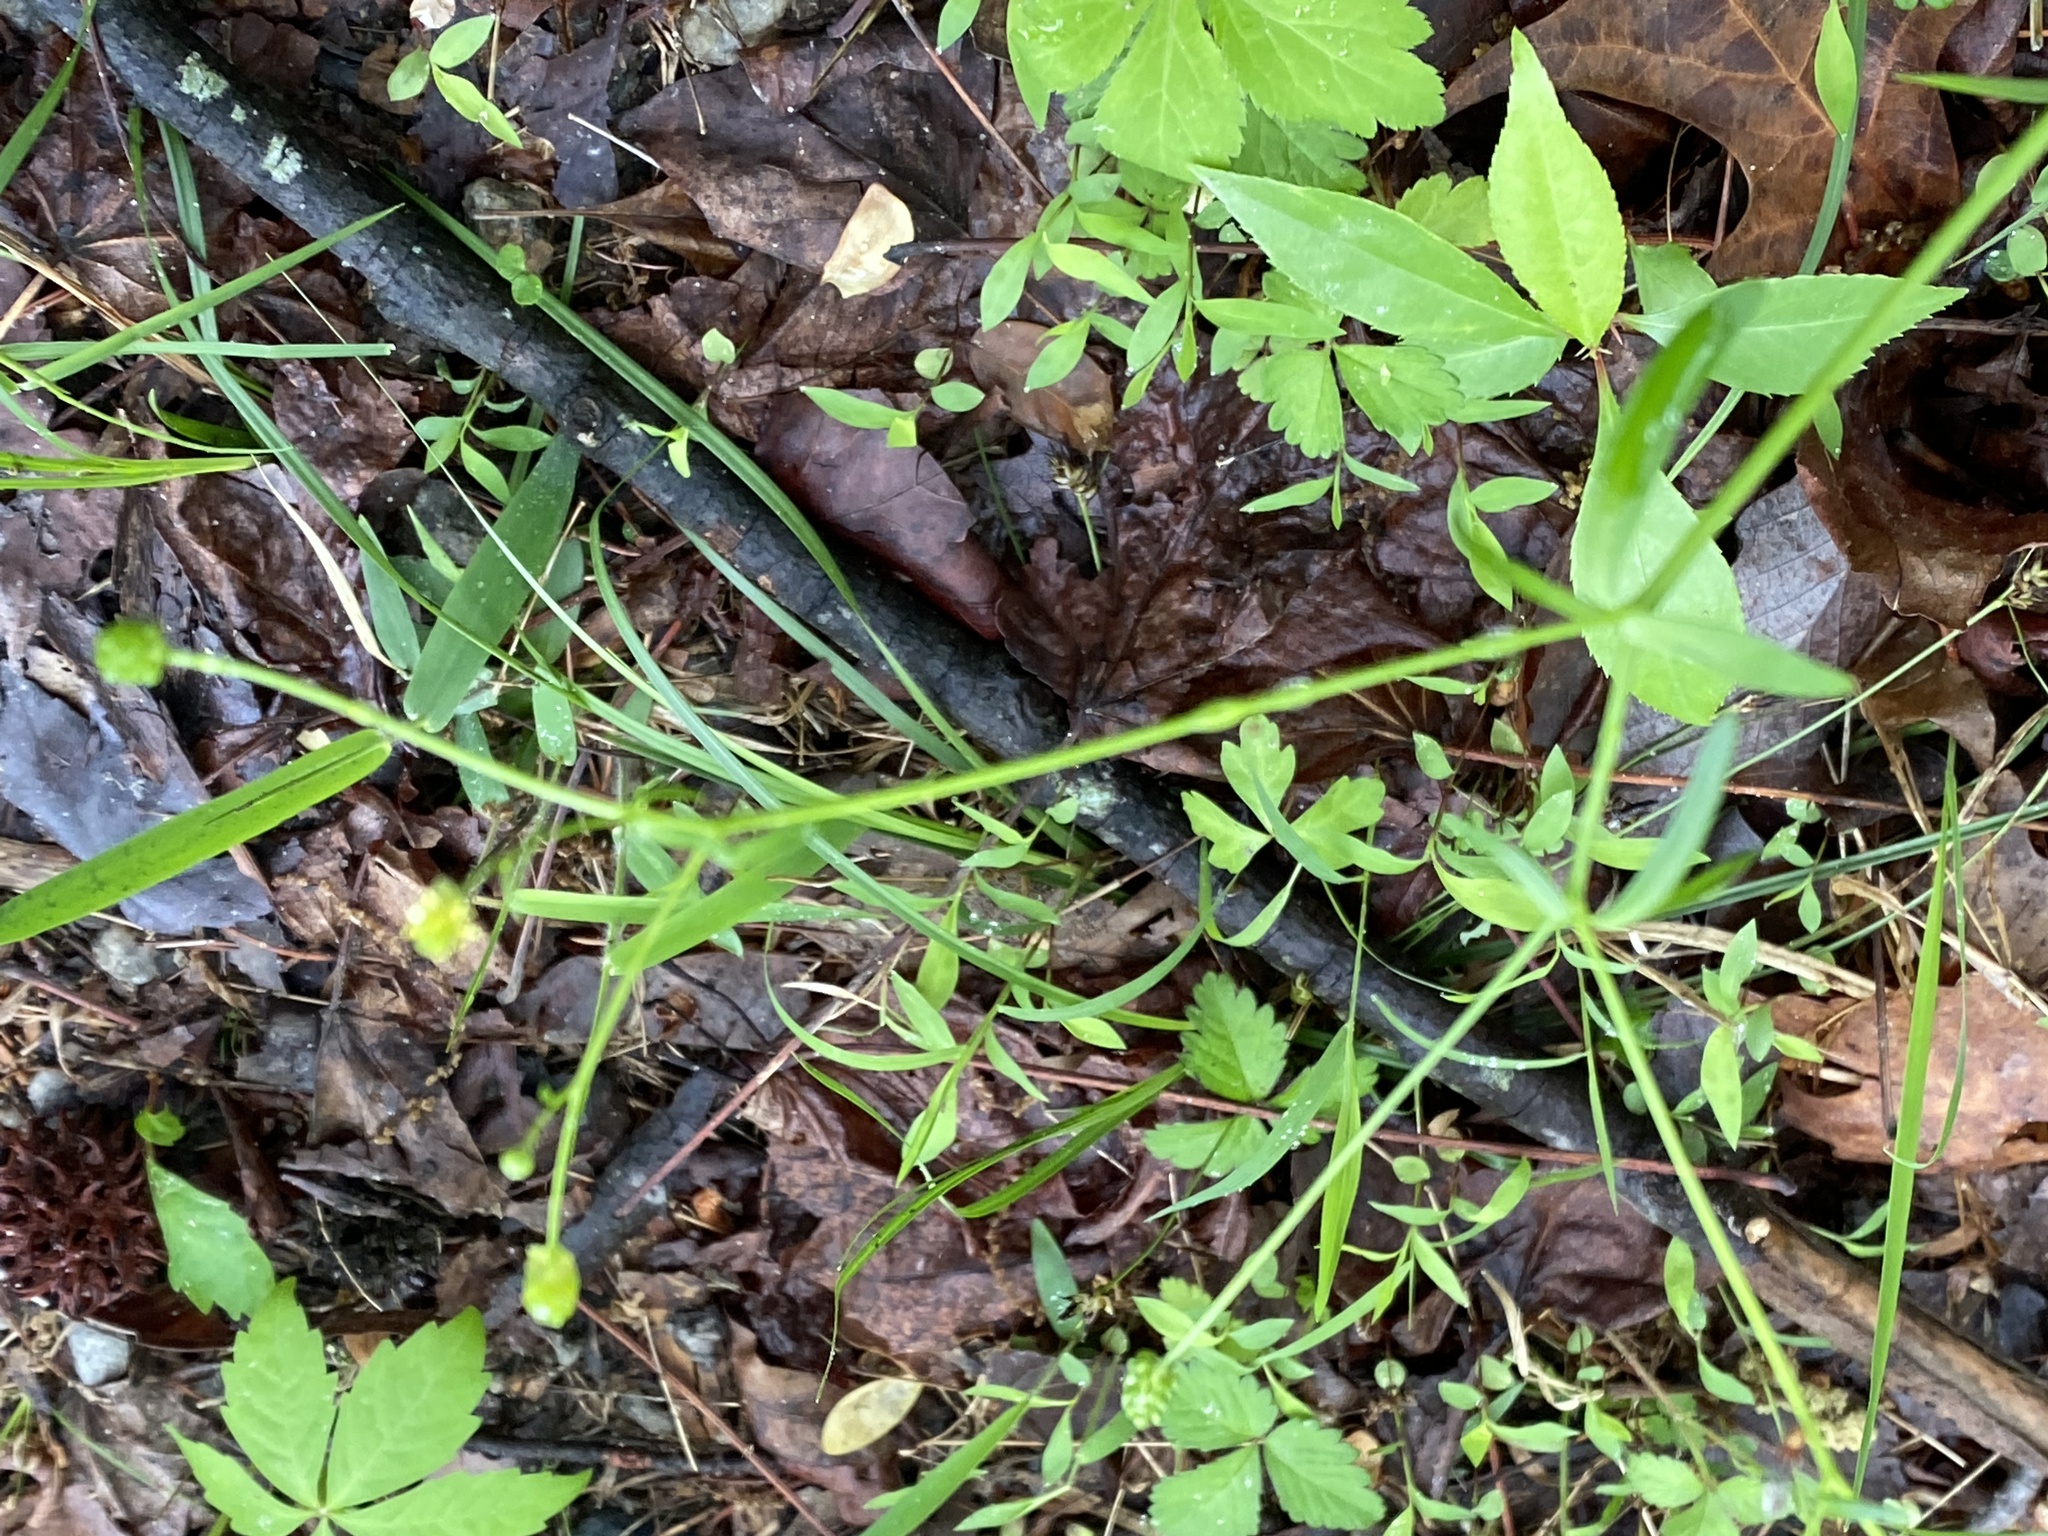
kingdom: Plantae
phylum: Tracheophyta
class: Magnoliopsida
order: Ranunculales
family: Ranunculaceae
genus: Ranunculus
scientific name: Ranunculus abortivus
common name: Early wood buttercup
